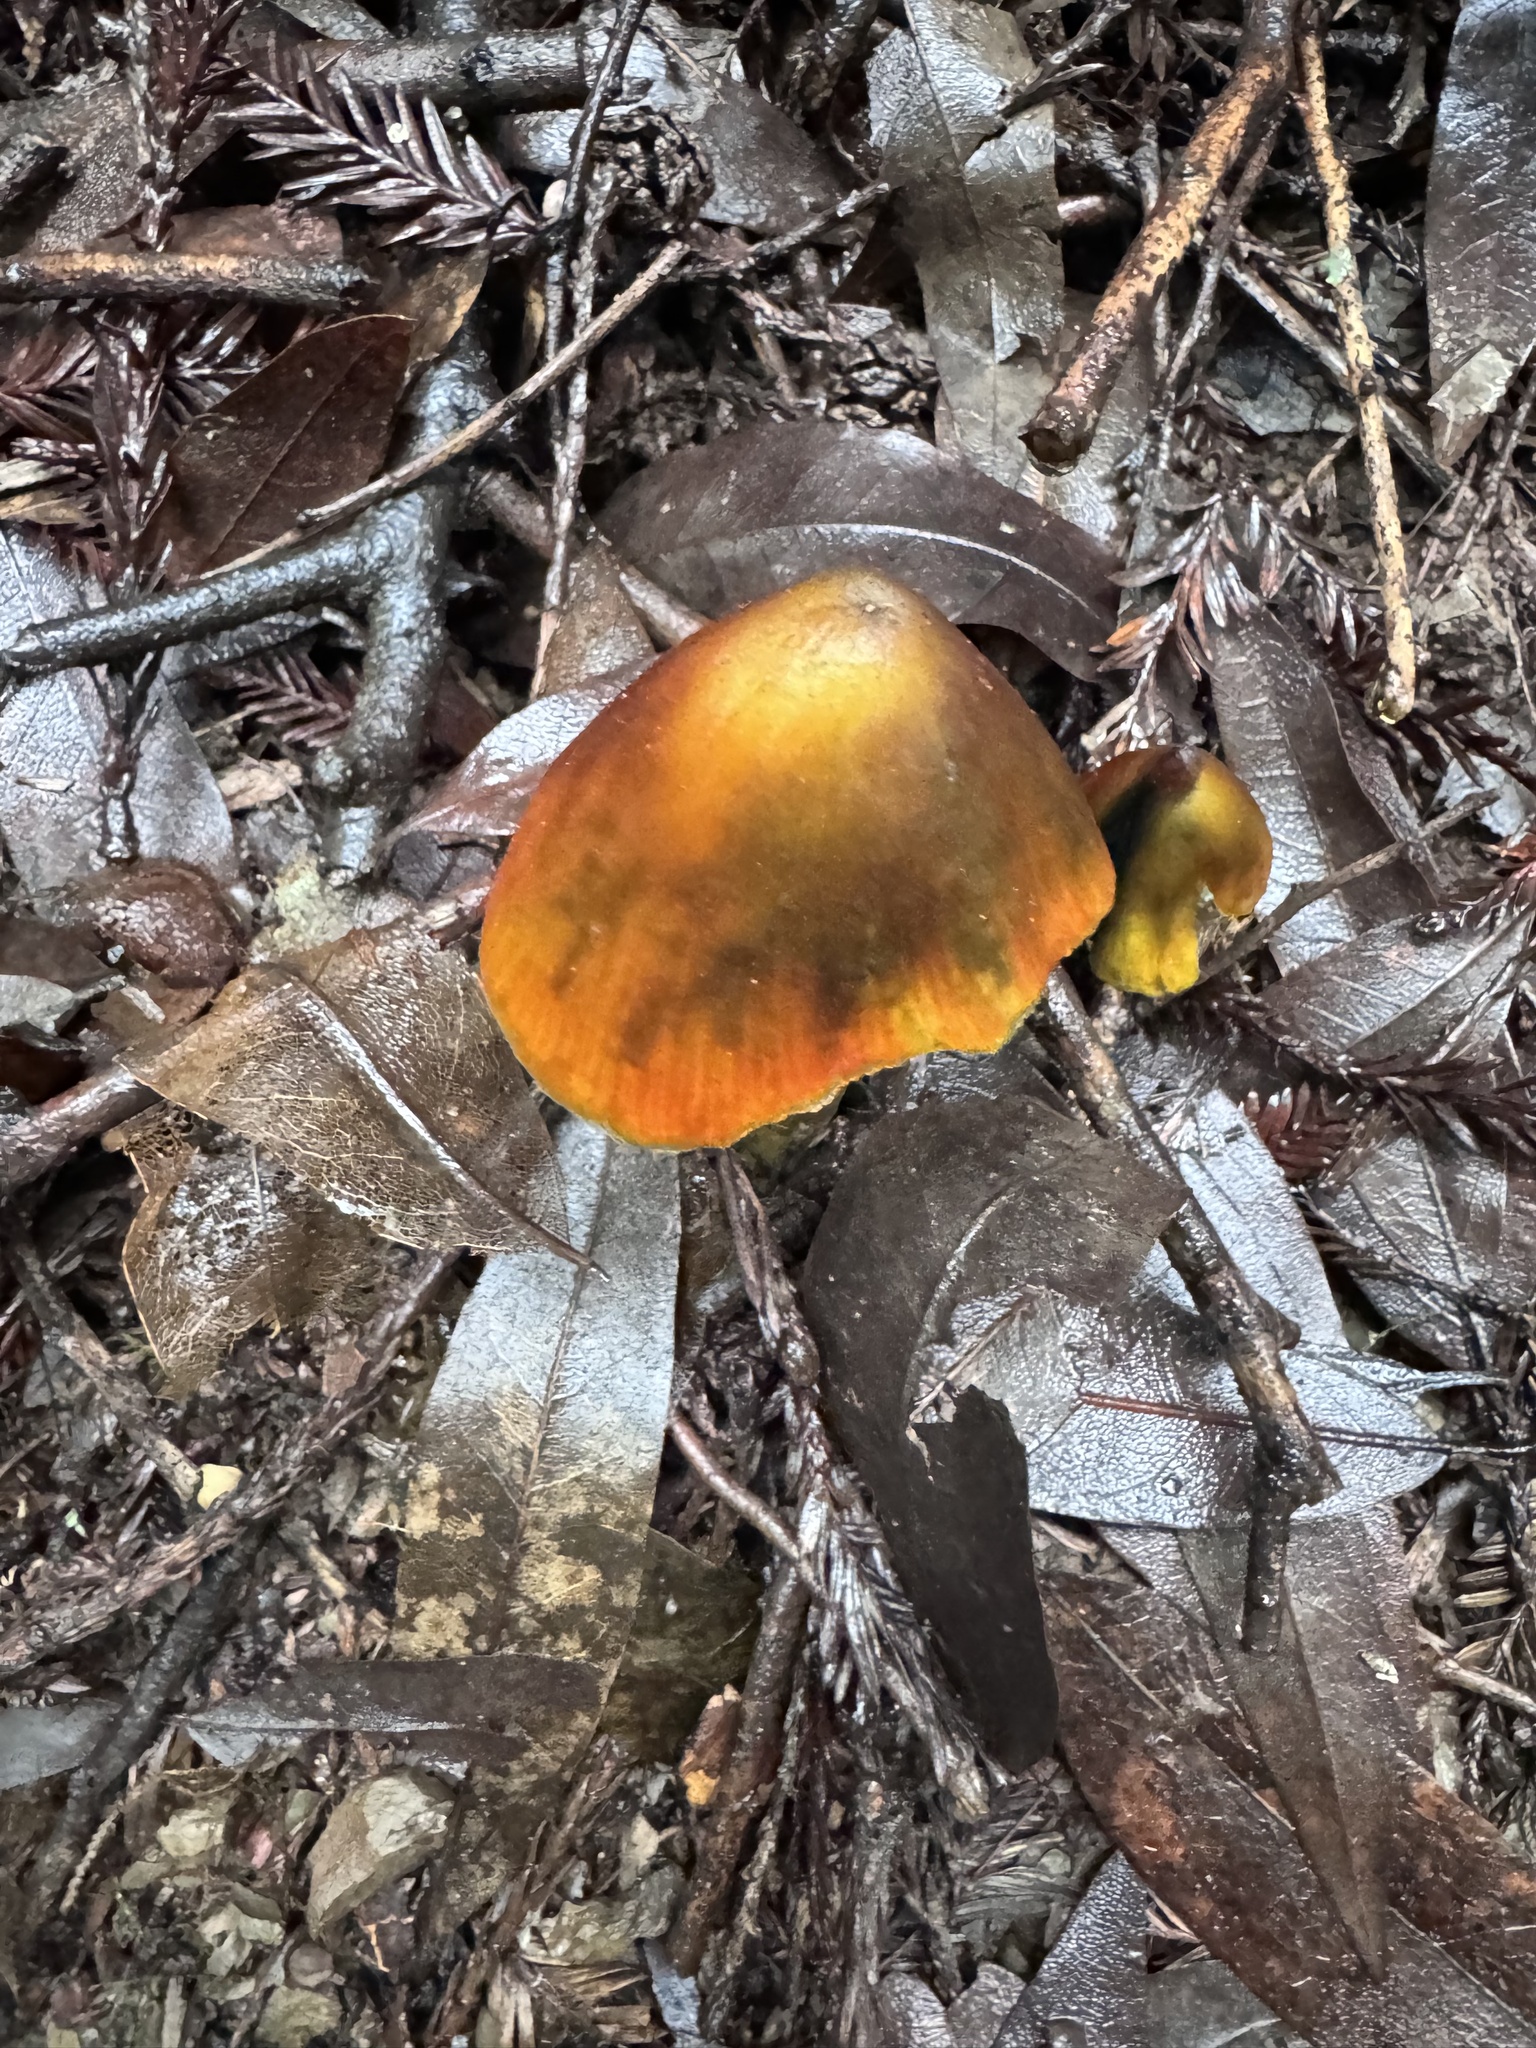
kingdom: Fungi
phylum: Basidiomycota
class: Agaricomycetes
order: Agaricales
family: Hygrophoraceae
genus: Hygrocybe
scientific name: Hygrocybe singeri
